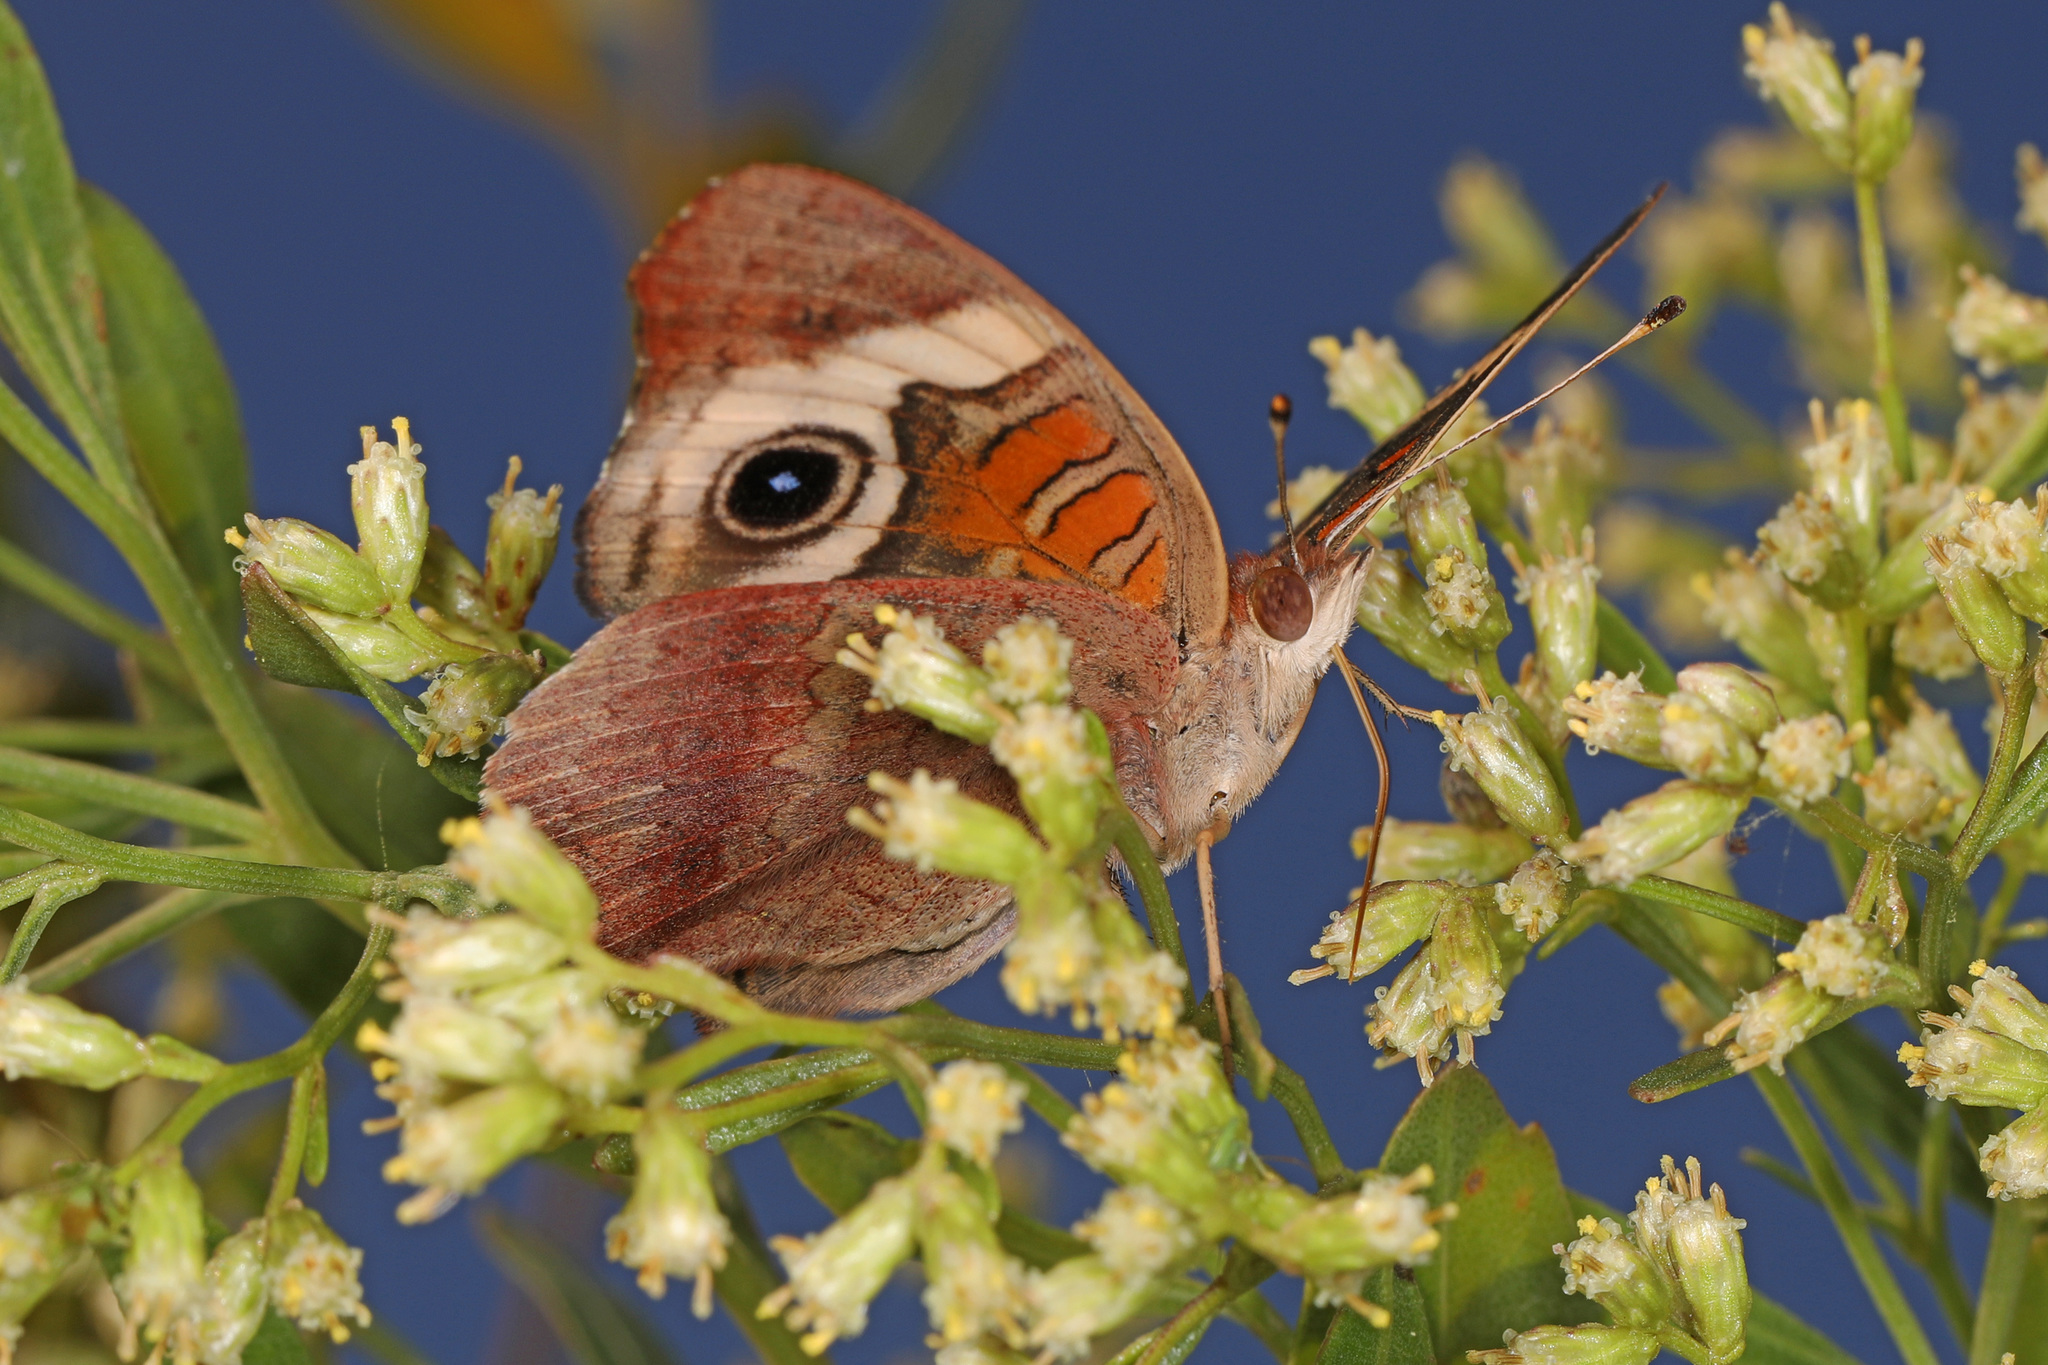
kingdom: Animalia
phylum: Arthropoda
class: Insecta
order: Lepidoptera
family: Nymphalidae
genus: Junonia
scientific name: Junonia coenia
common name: Common buckeye
